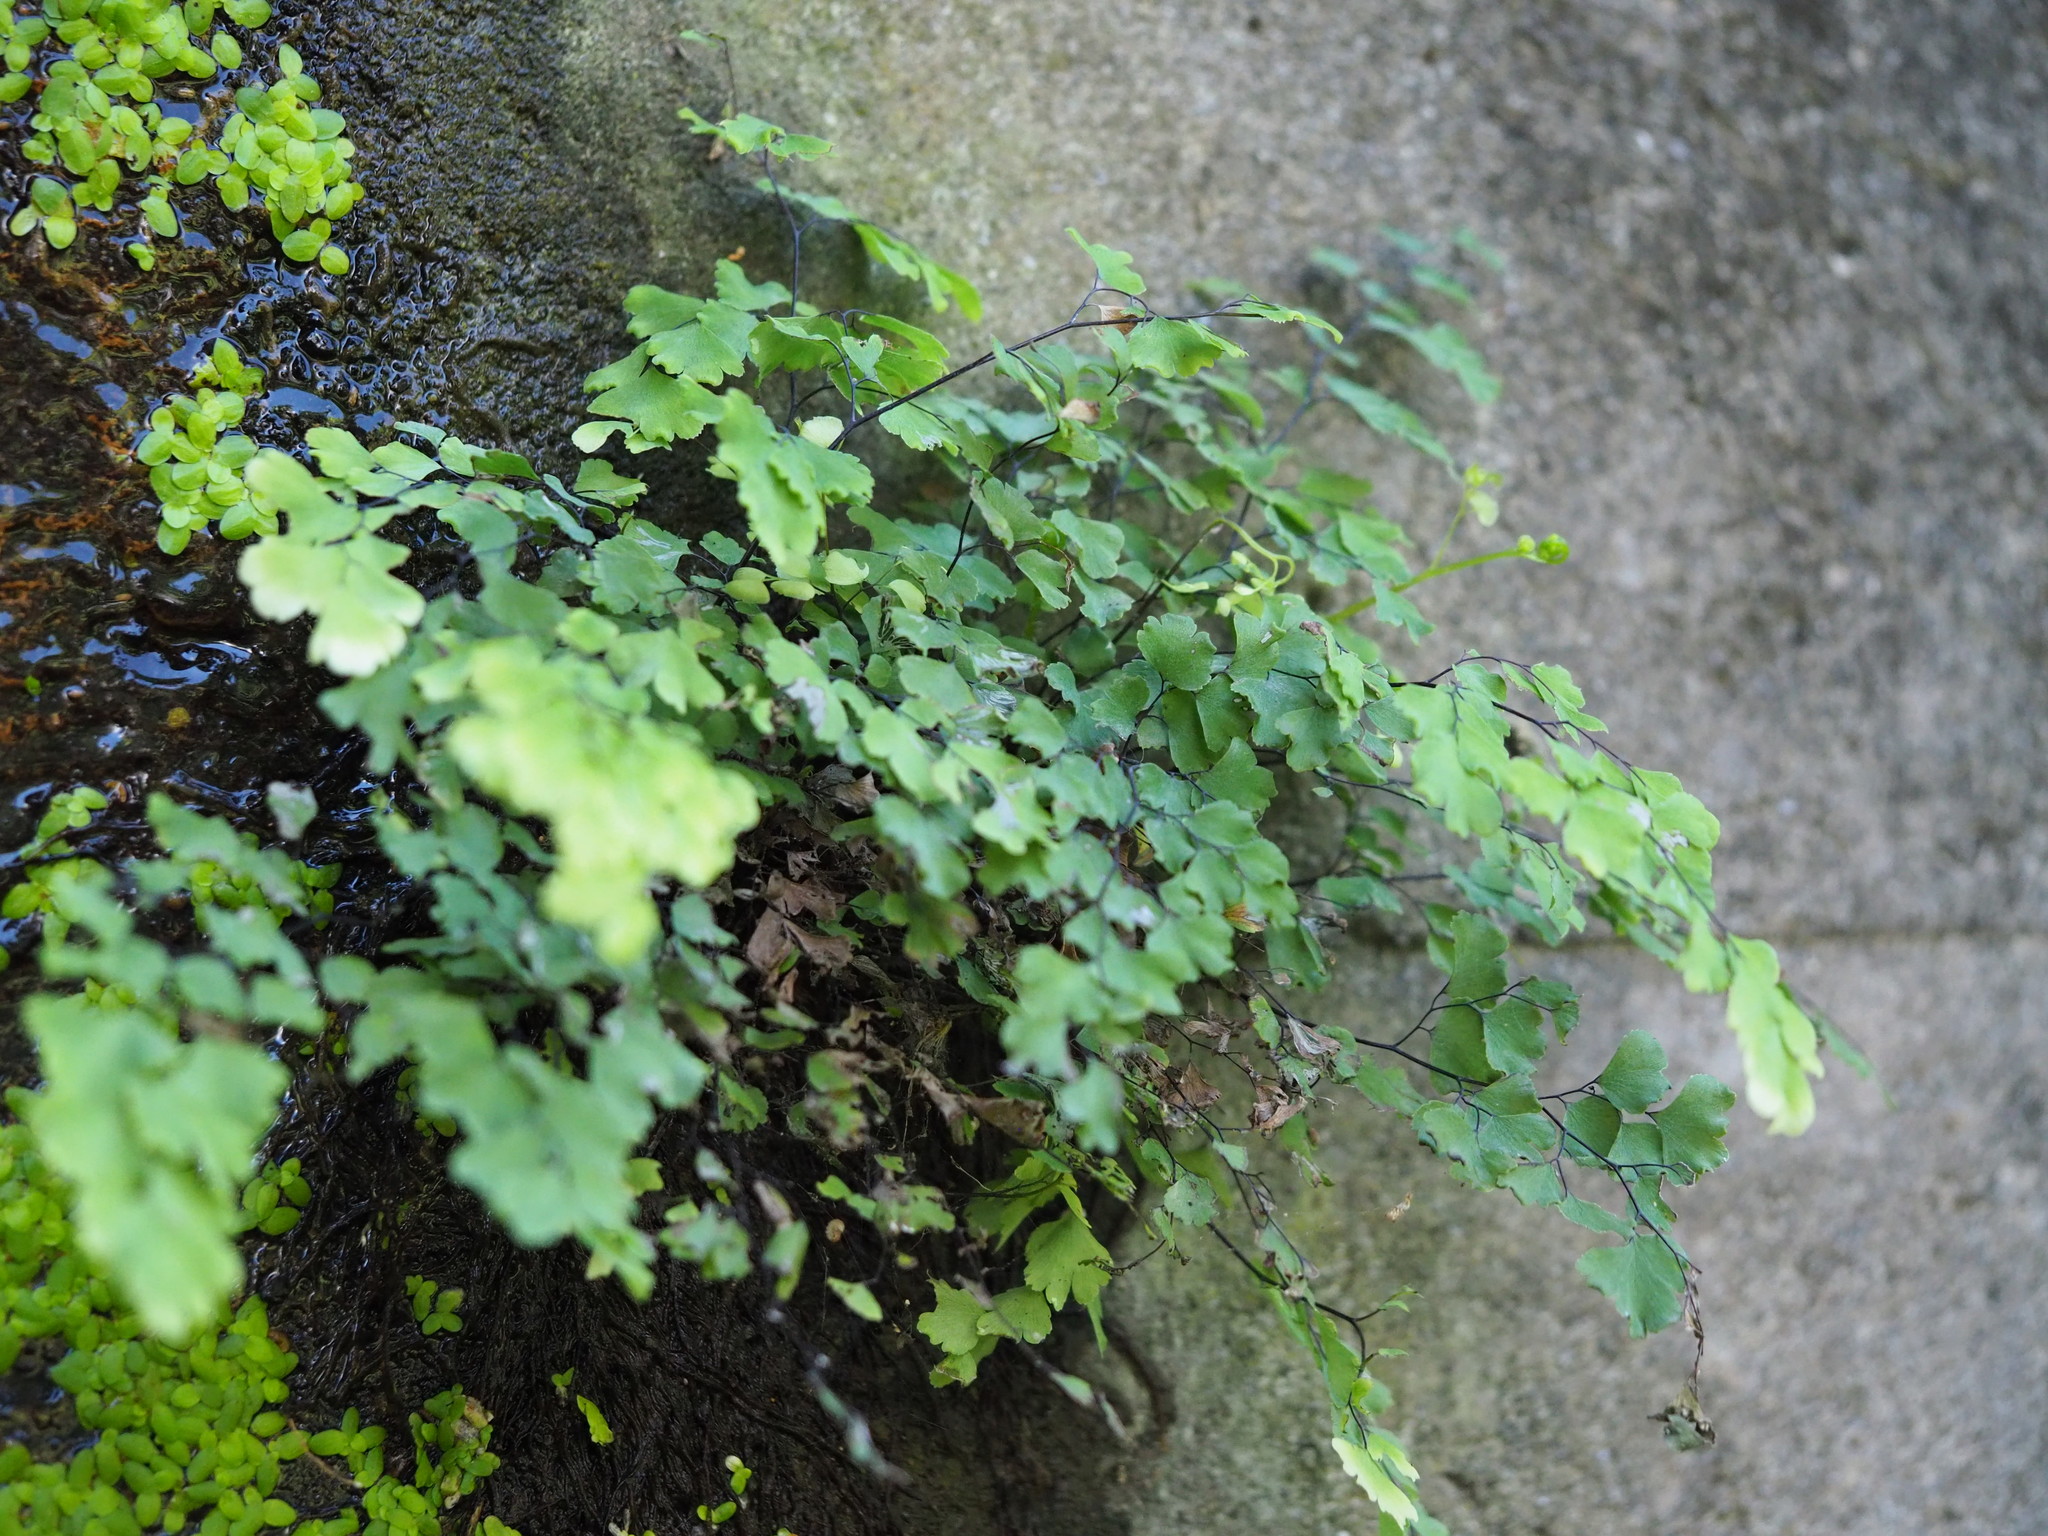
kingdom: Plantae
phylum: Tracheophyta
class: Polypodiopsida
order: Polypodiales
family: Pteridaceae
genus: Adiantum
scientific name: Adiantum capillus-veneris
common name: Maidenhair fern
